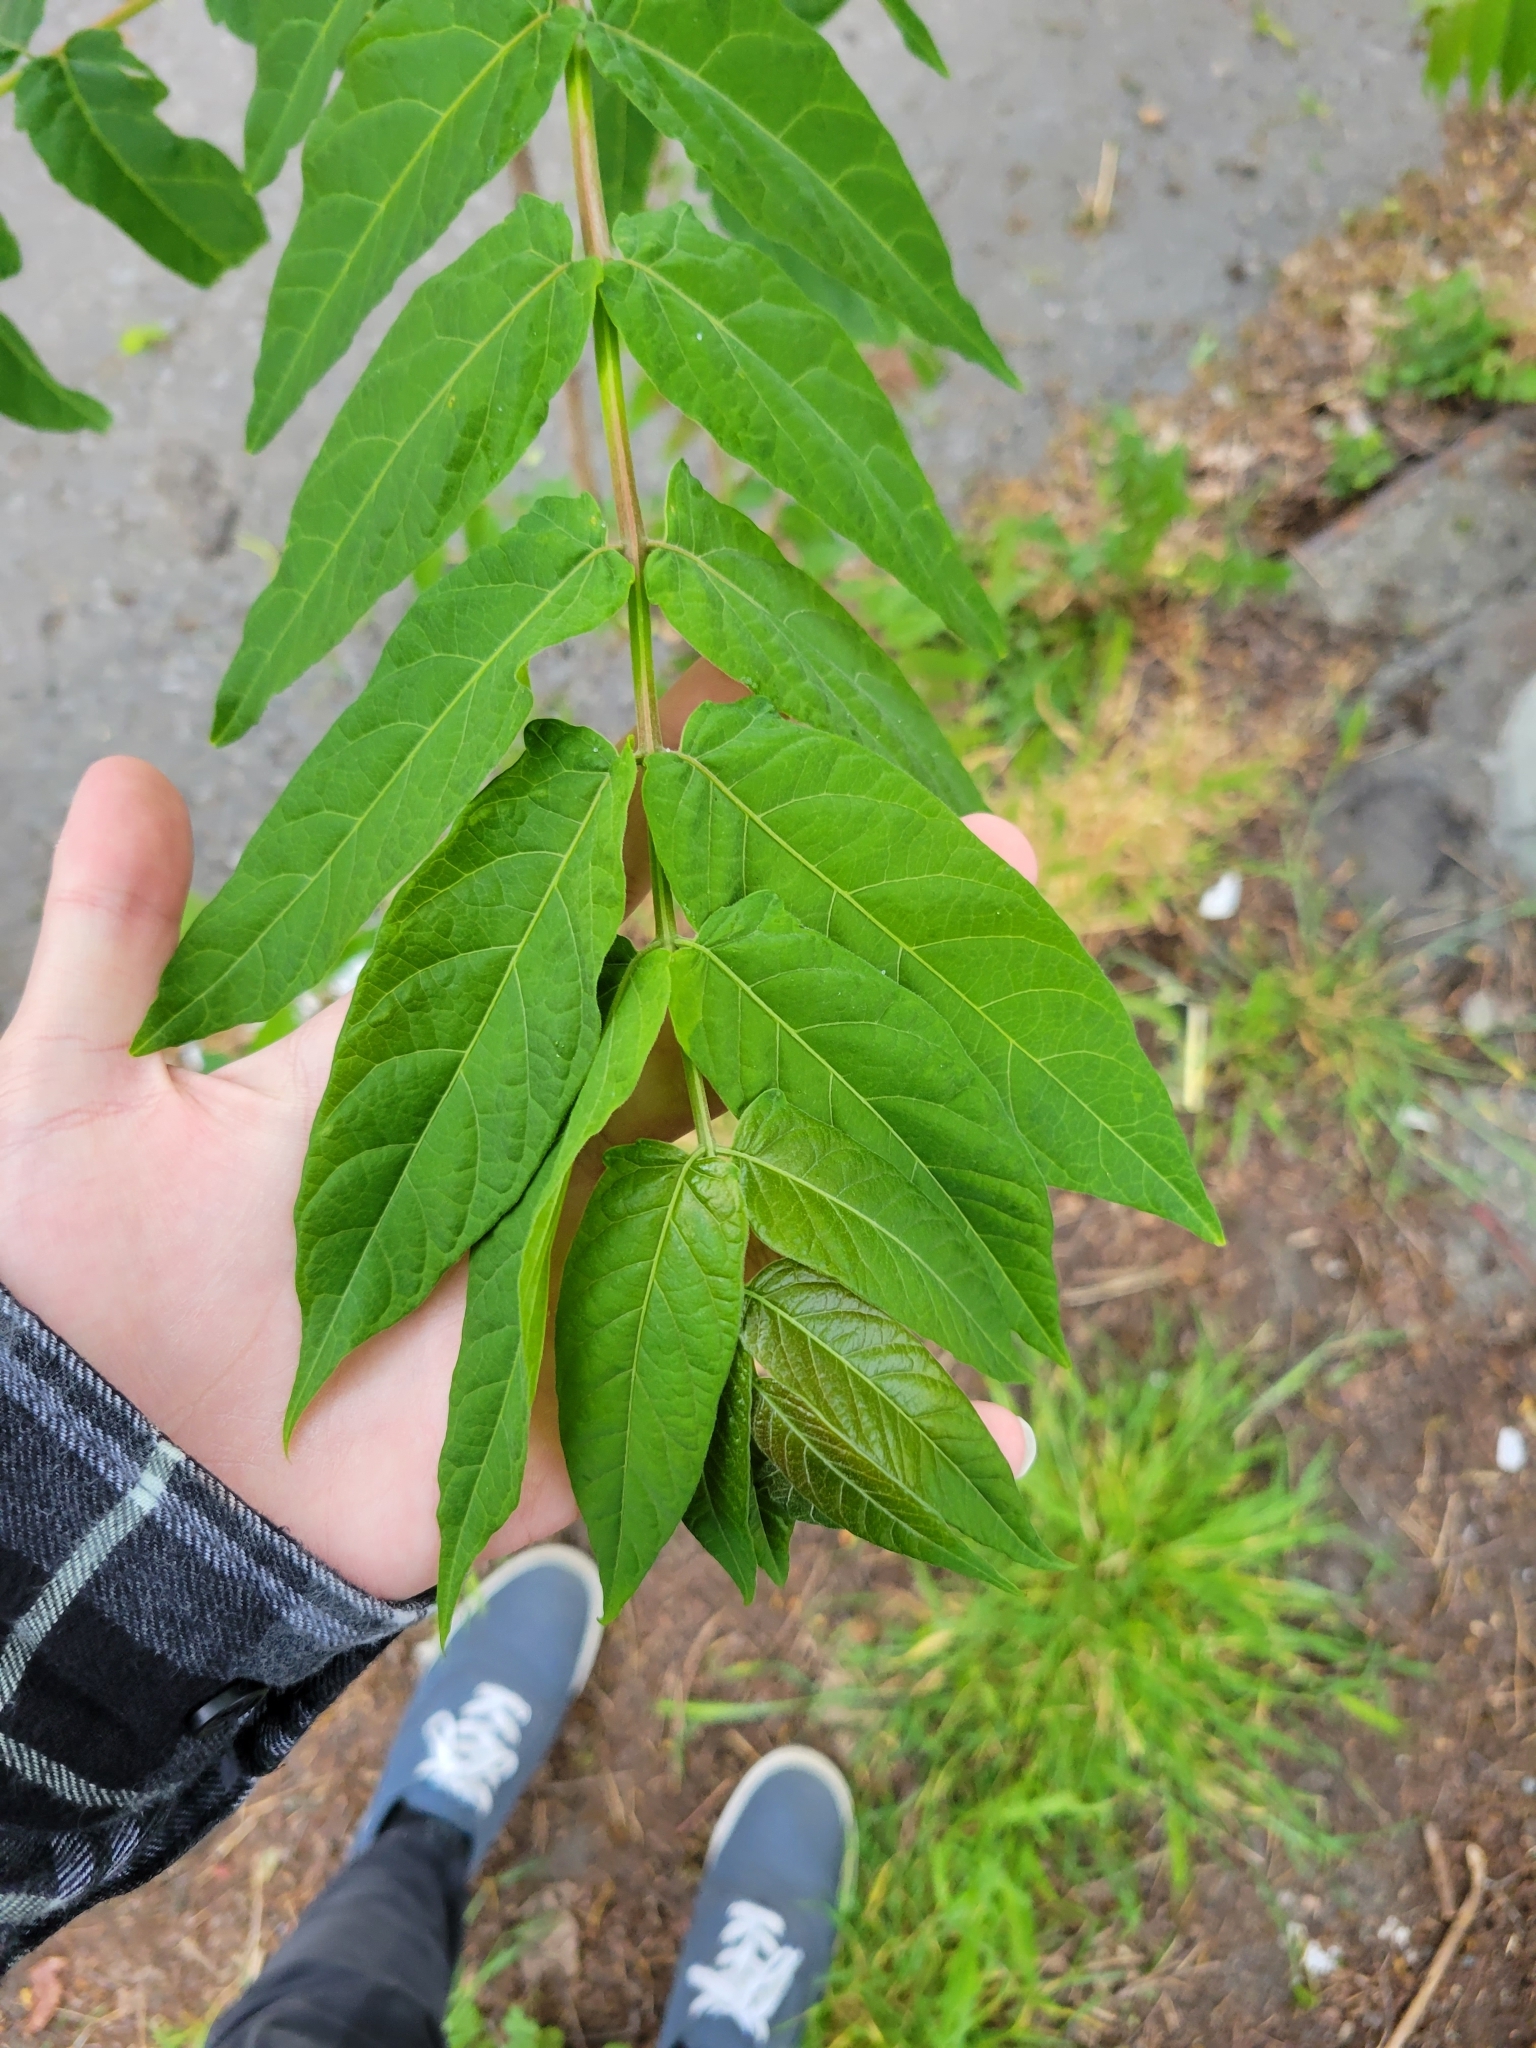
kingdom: Plantae
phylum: Tracheophyta
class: Magnoliopsida
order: Sapindales
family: Simaroubaceae
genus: Ailanthus
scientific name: Ailanthus altissima
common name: Tree-of-heaven
